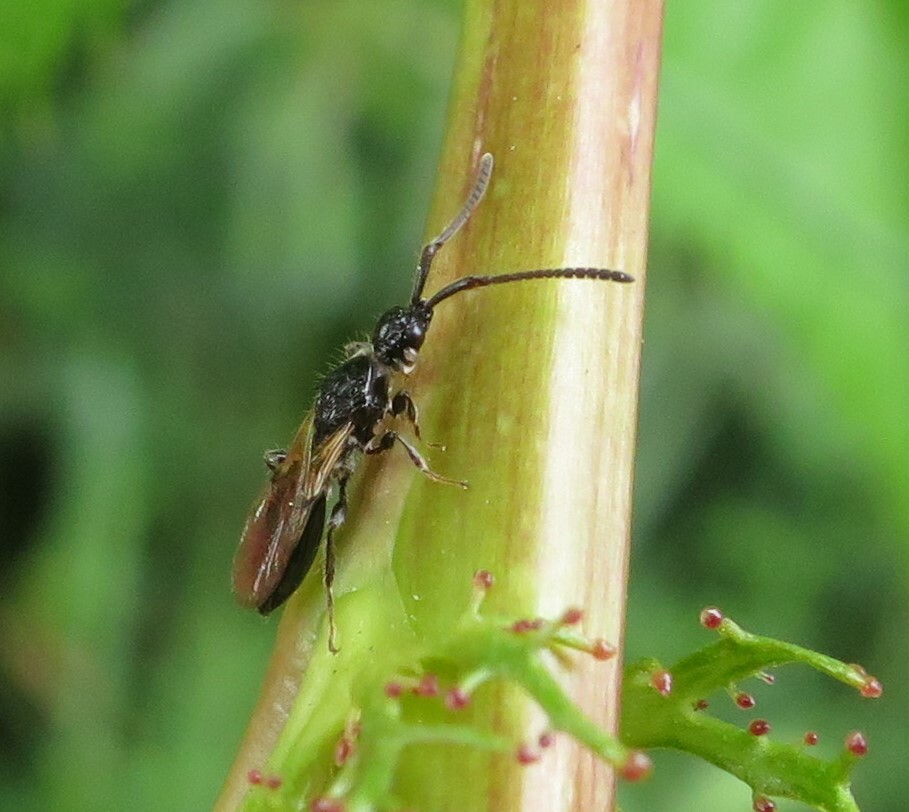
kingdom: Animalia
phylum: Arthropoda
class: Insecta
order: Hymenoptera
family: Diapriidae
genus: Neurogalesus
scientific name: Neurogalesus carinatus
